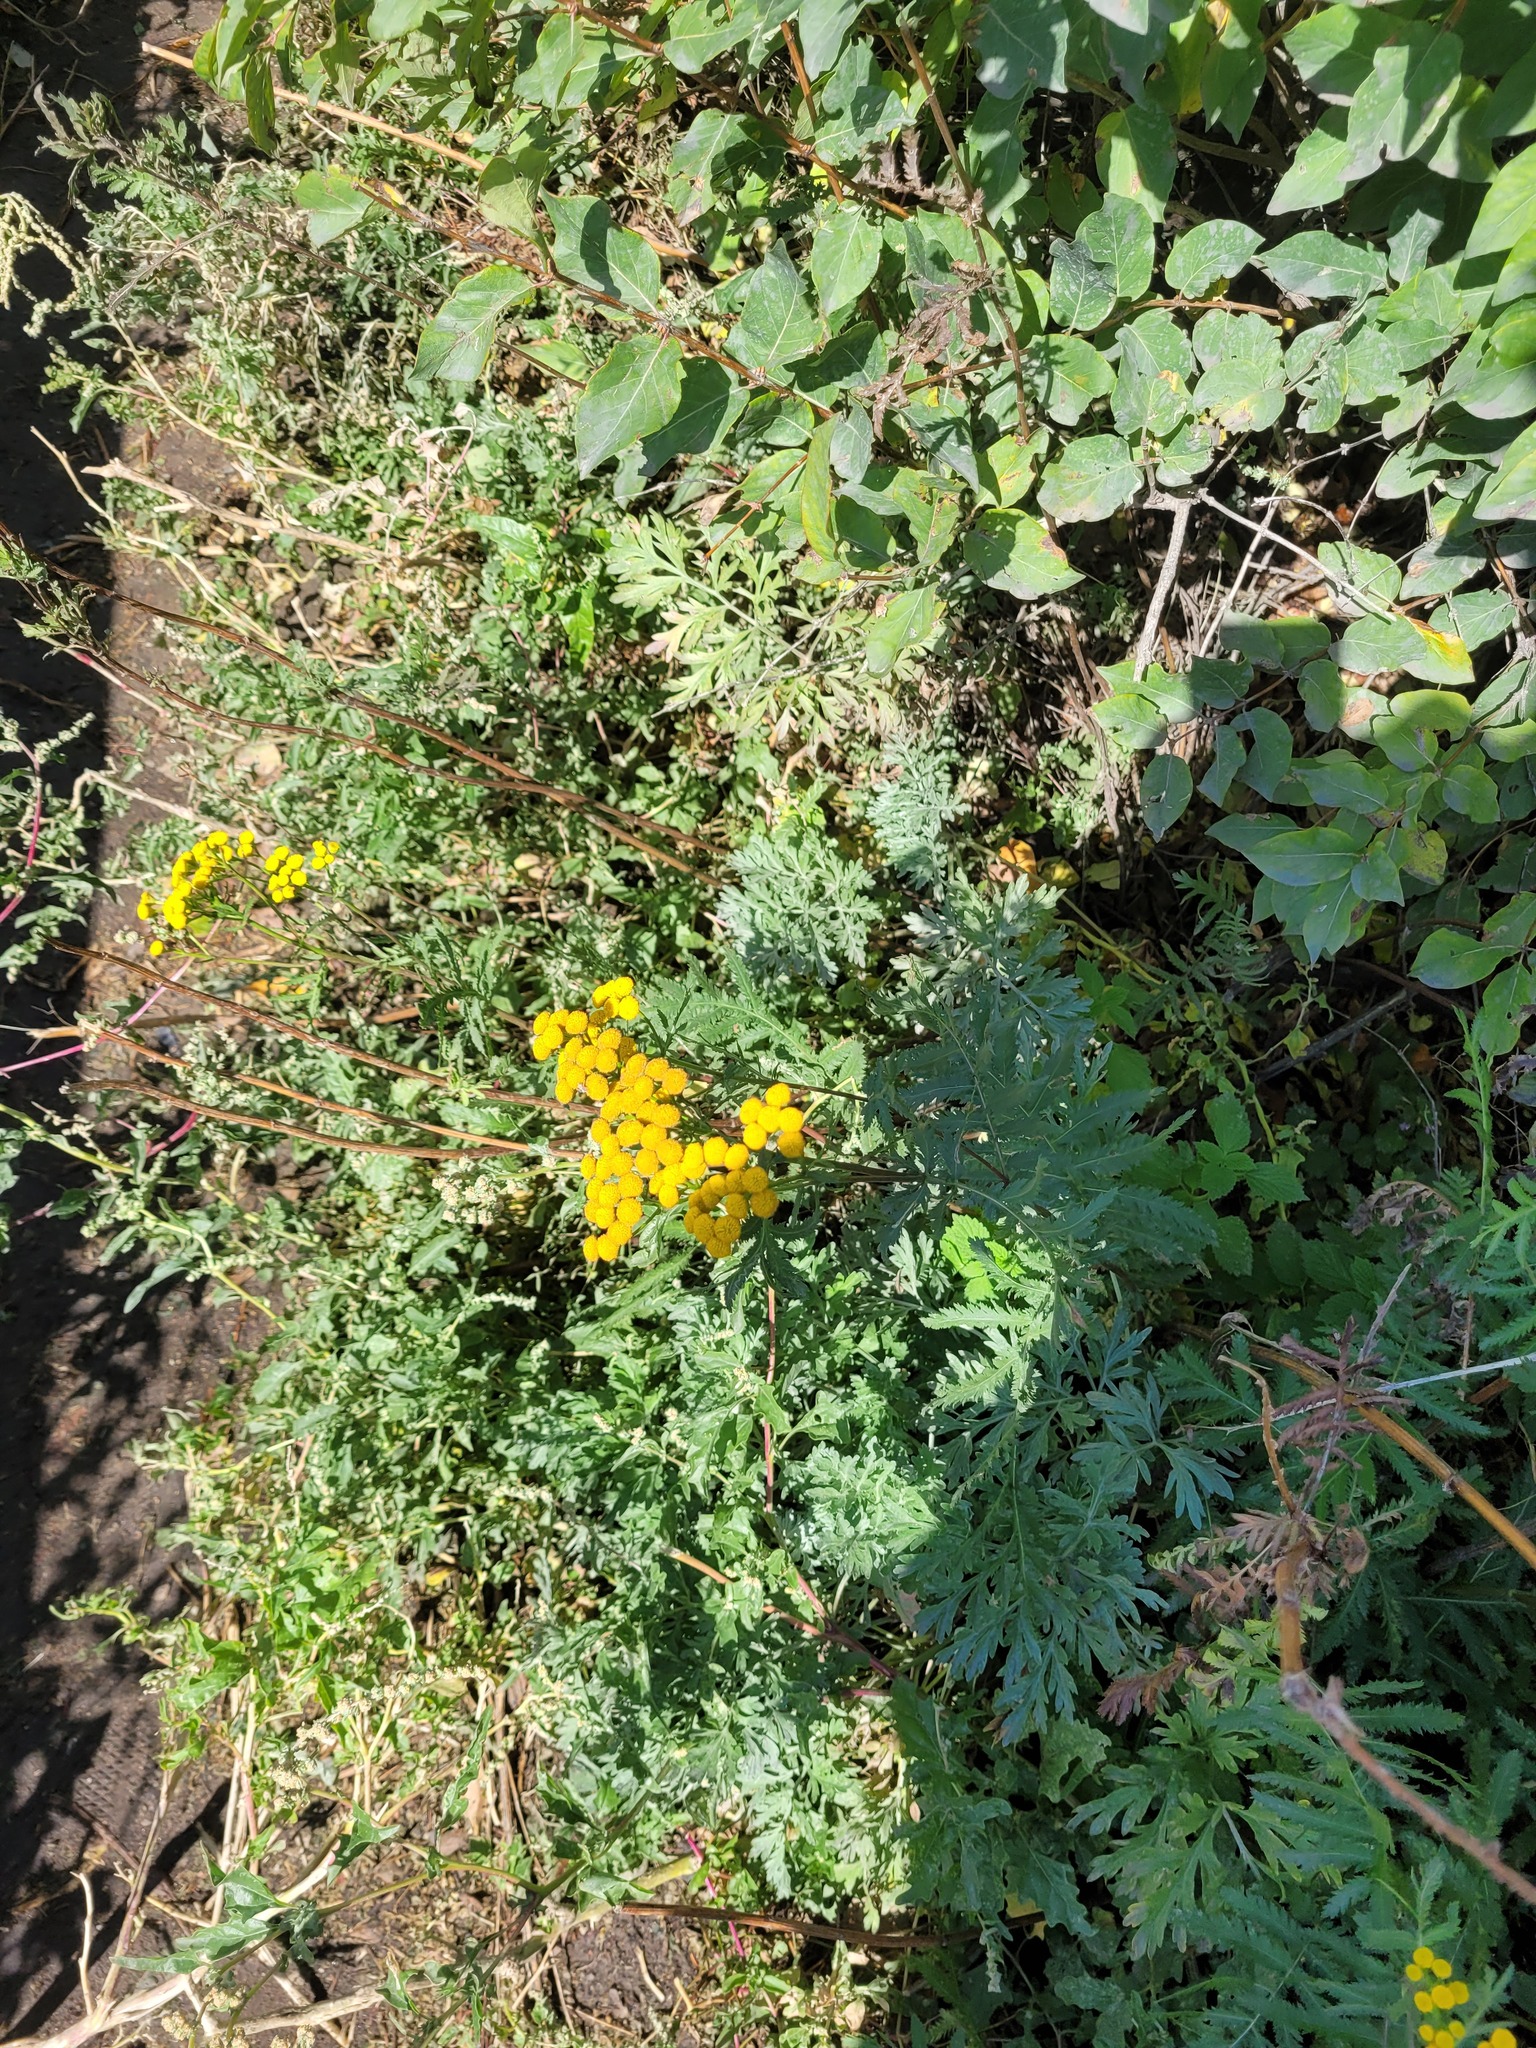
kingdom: Plantae
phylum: Tracheophyta
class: Magnoliopsida
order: Asterales
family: Asteraceae
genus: Tanacetum
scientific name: Tanacetum vulgare
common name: Common tansy
